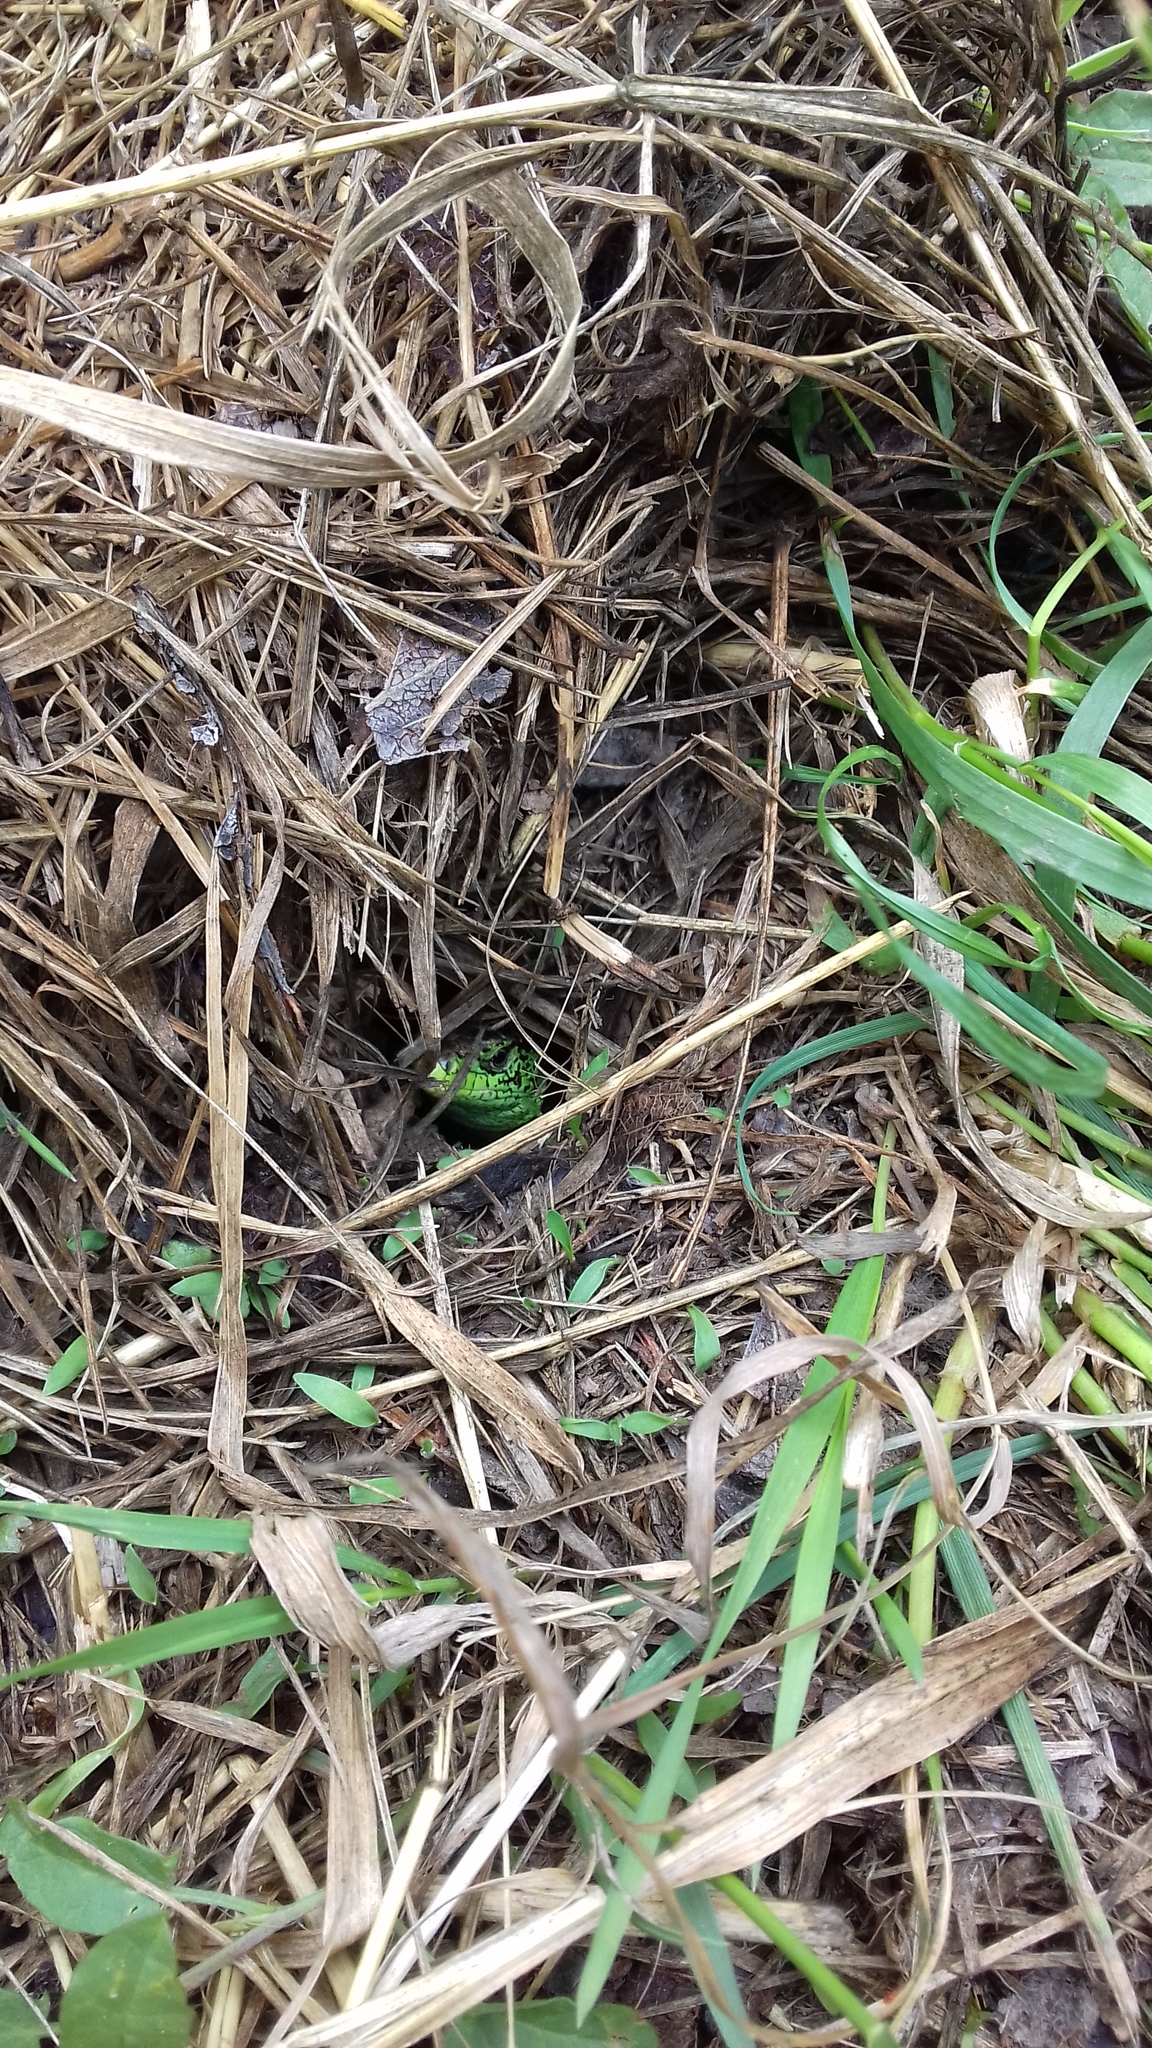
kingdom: Animalia
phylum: Chordata
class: Squamata
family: Lacertidae
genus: Lacerta
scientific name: Lacerta agilis
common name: Sand lizard
